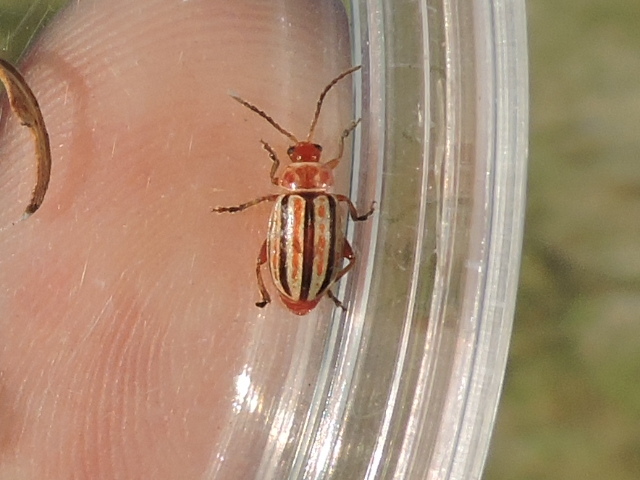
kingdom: Animalia
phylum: Arthropoda
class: Insecta
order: Coleoptera
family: Chrysomelidae
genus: Disonycha
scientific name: Disonycha admirabila
